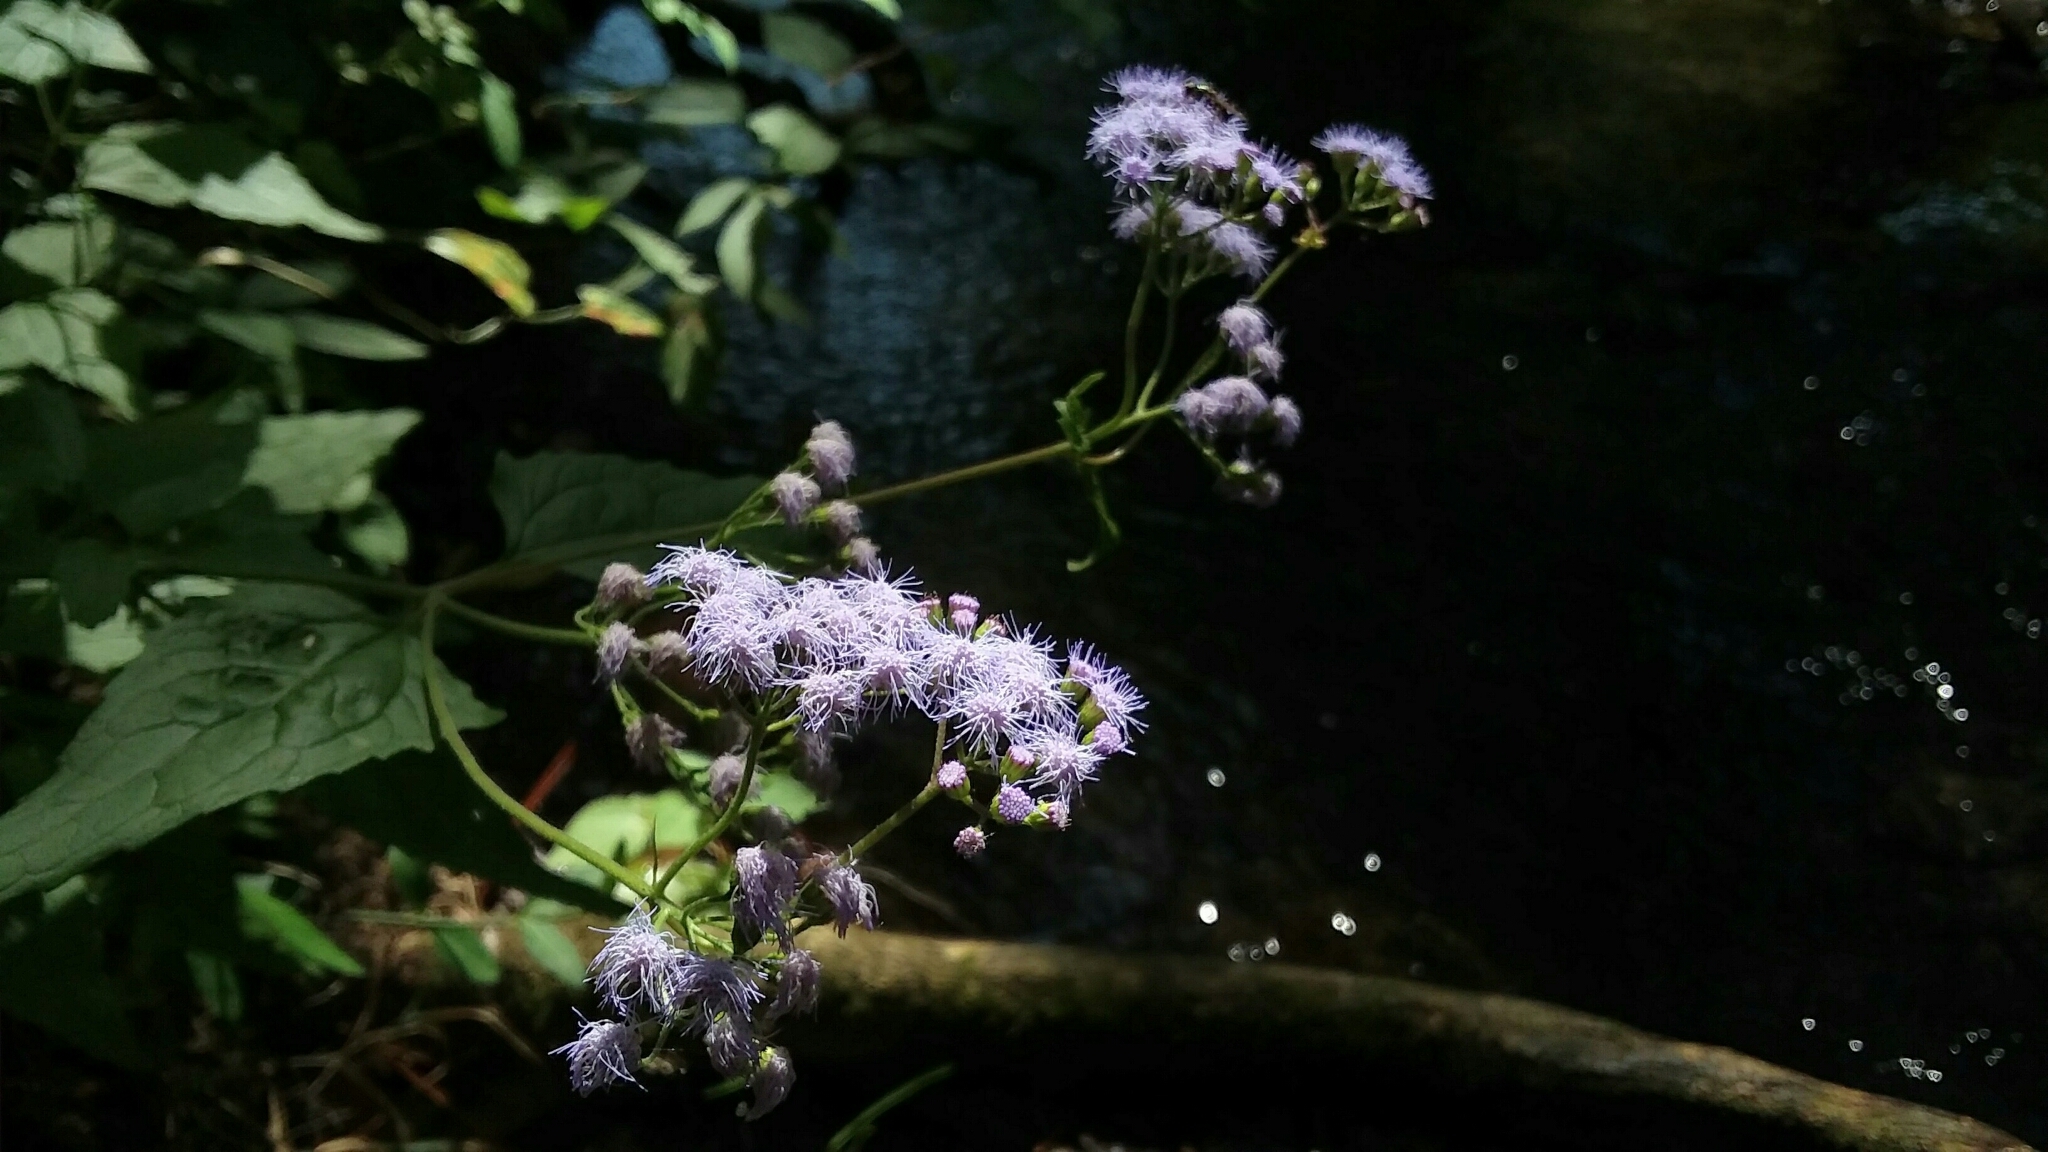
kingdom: Plantae
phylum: Tracheophyta
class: Magnoliopsida
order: Asterales
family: Asteraceae
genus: Conoclinium
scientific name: Conoclinium coelestinum
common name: Blue mistflower
